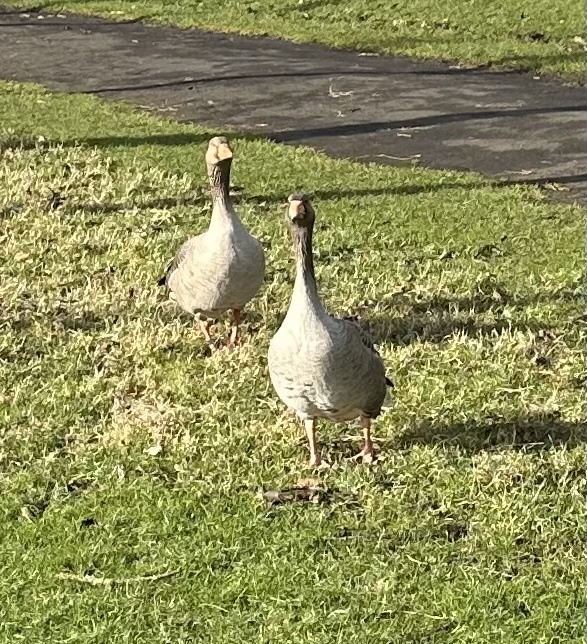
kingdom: Animalia
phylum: Chordata
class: Aves
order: Anseriformes
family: Anatidae
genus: Anser
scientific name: Anser anser
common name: Greylag goose
